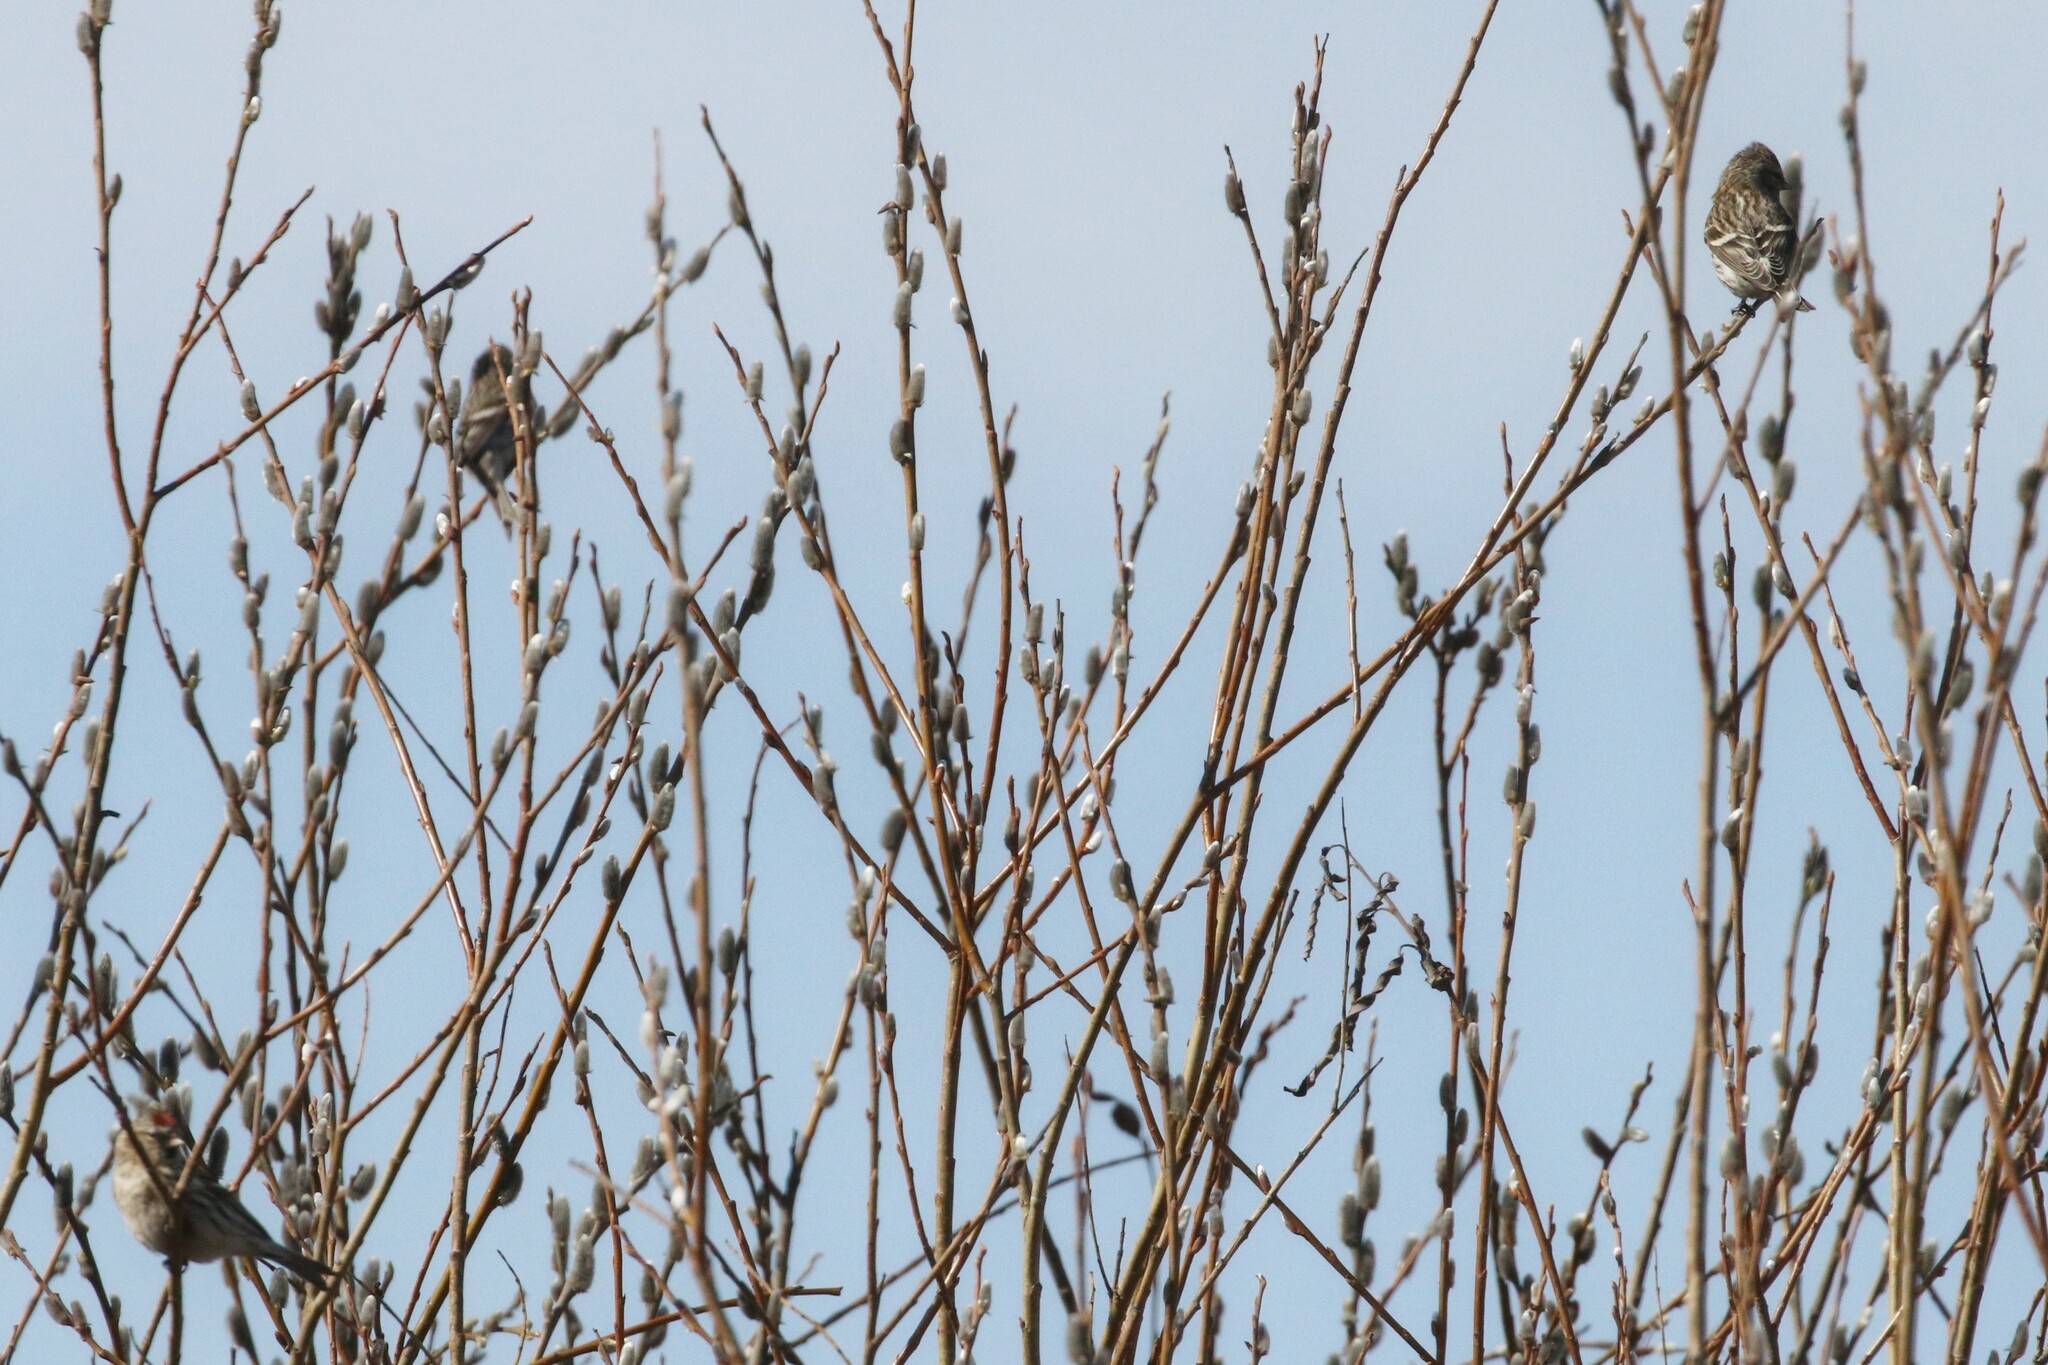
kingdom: Animalia
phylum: Chordata
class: Aves
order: Passeriformes
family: Fringillidae
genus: Acanthis
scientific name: Acanthis flammea
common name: Common redpoll
